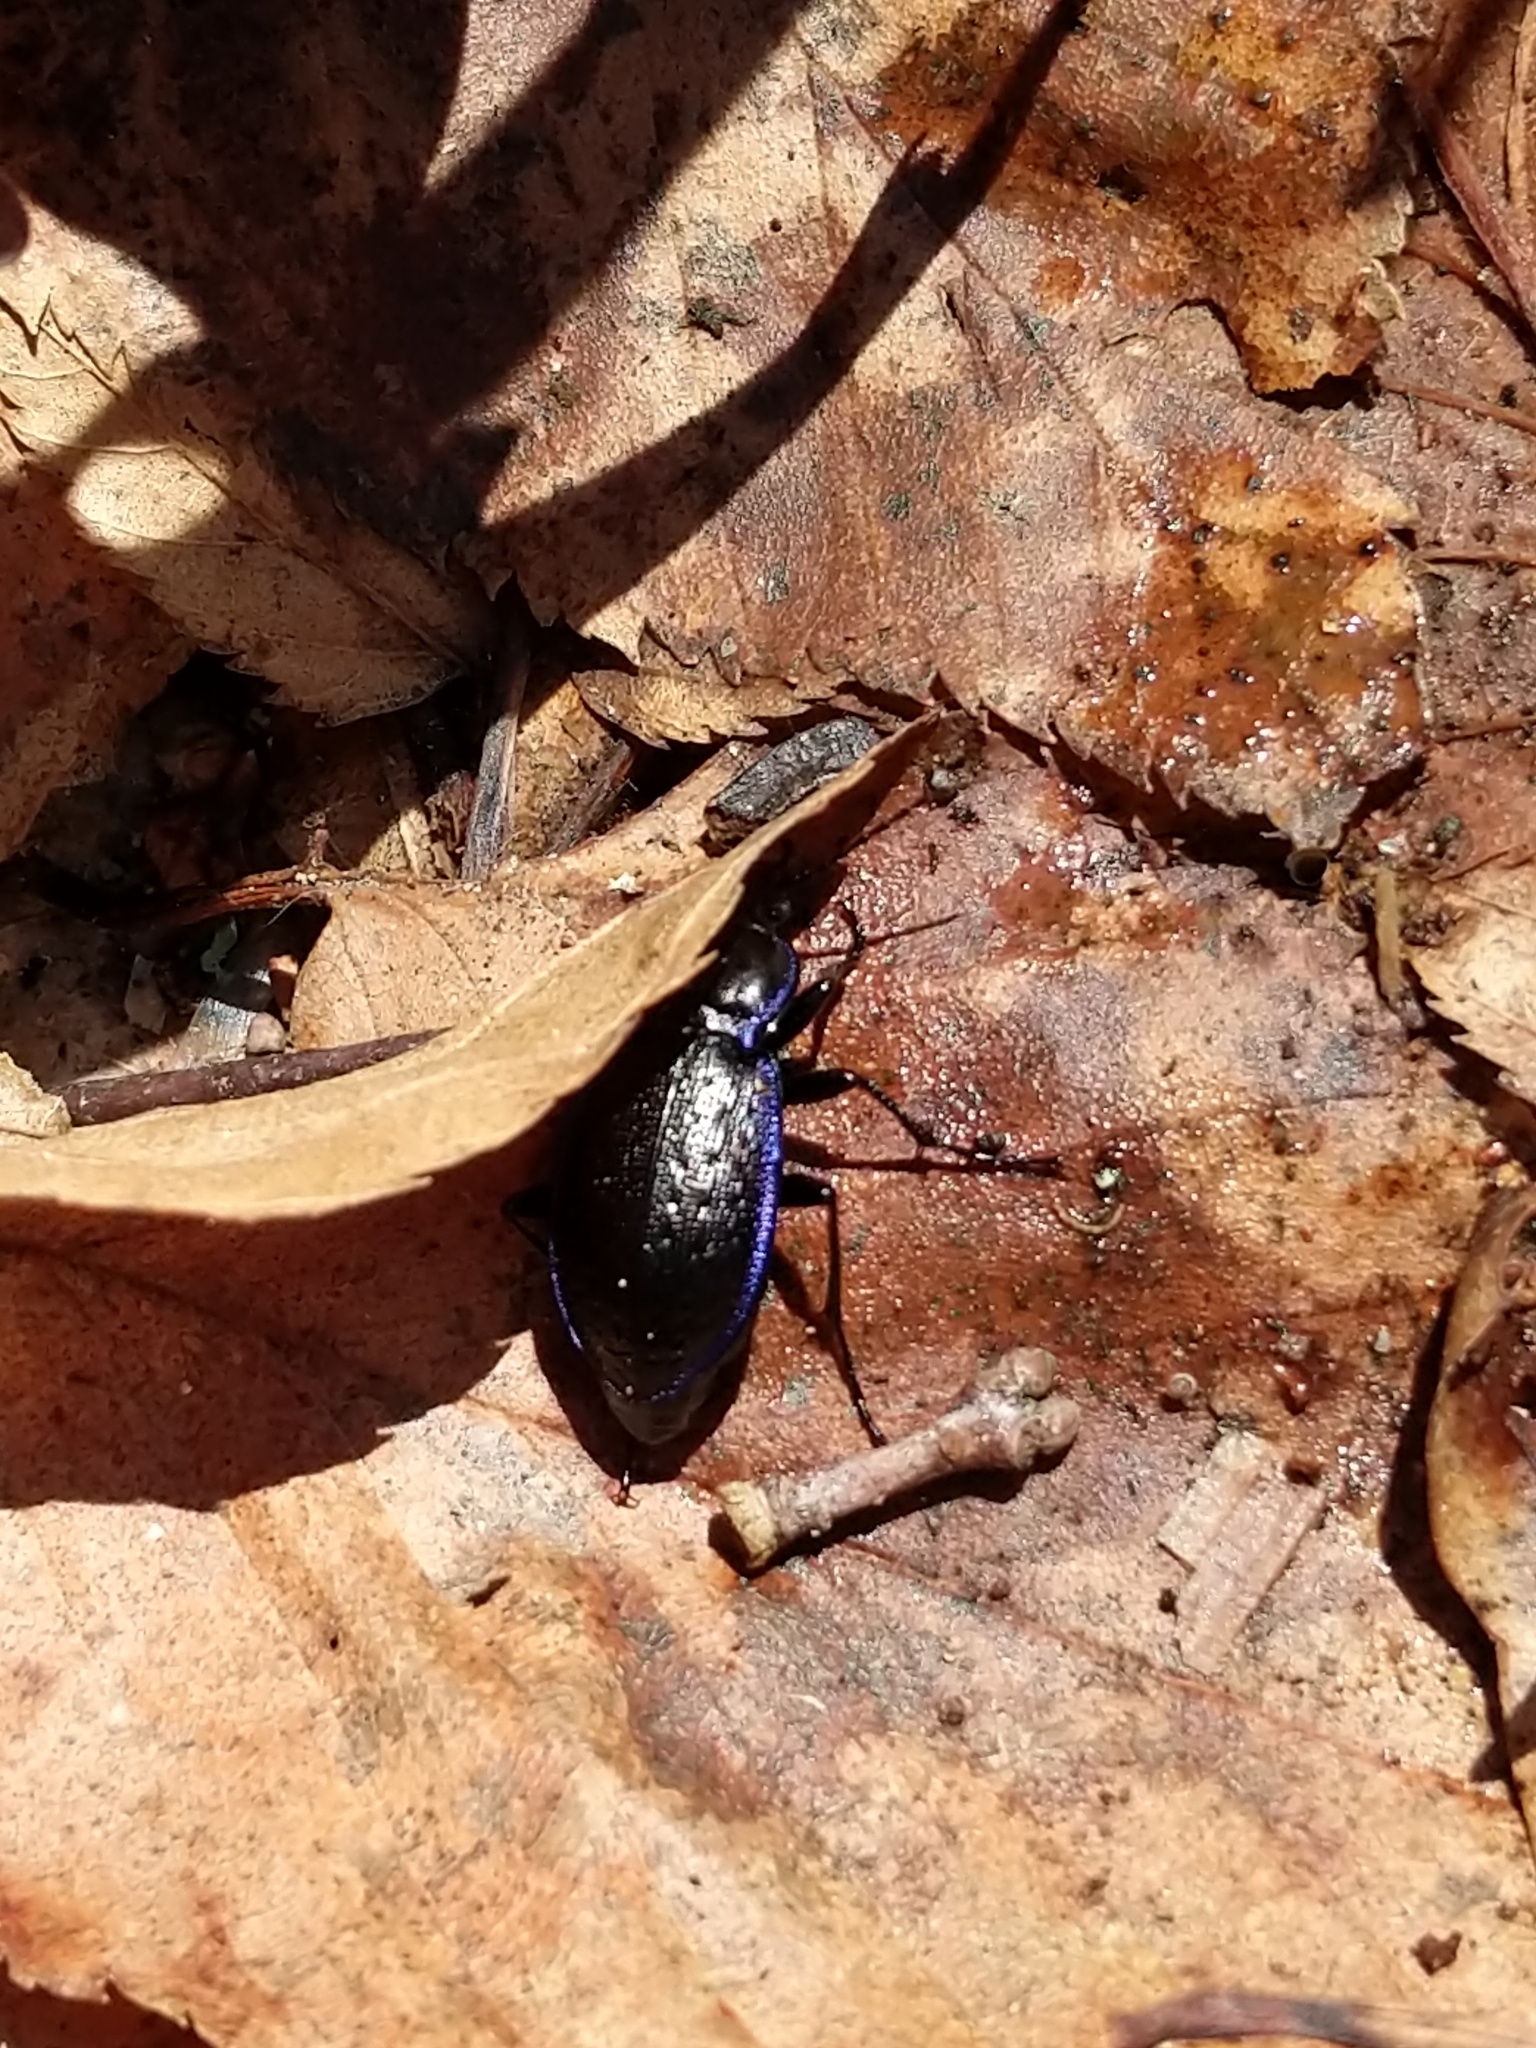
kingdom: Animalia
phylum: Arthropoda
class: Insecta
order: Coleoptera
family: Carabidae
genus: Carabus
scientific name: Carabus serratus
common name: Serrate-shoulder worm and slug hunter
